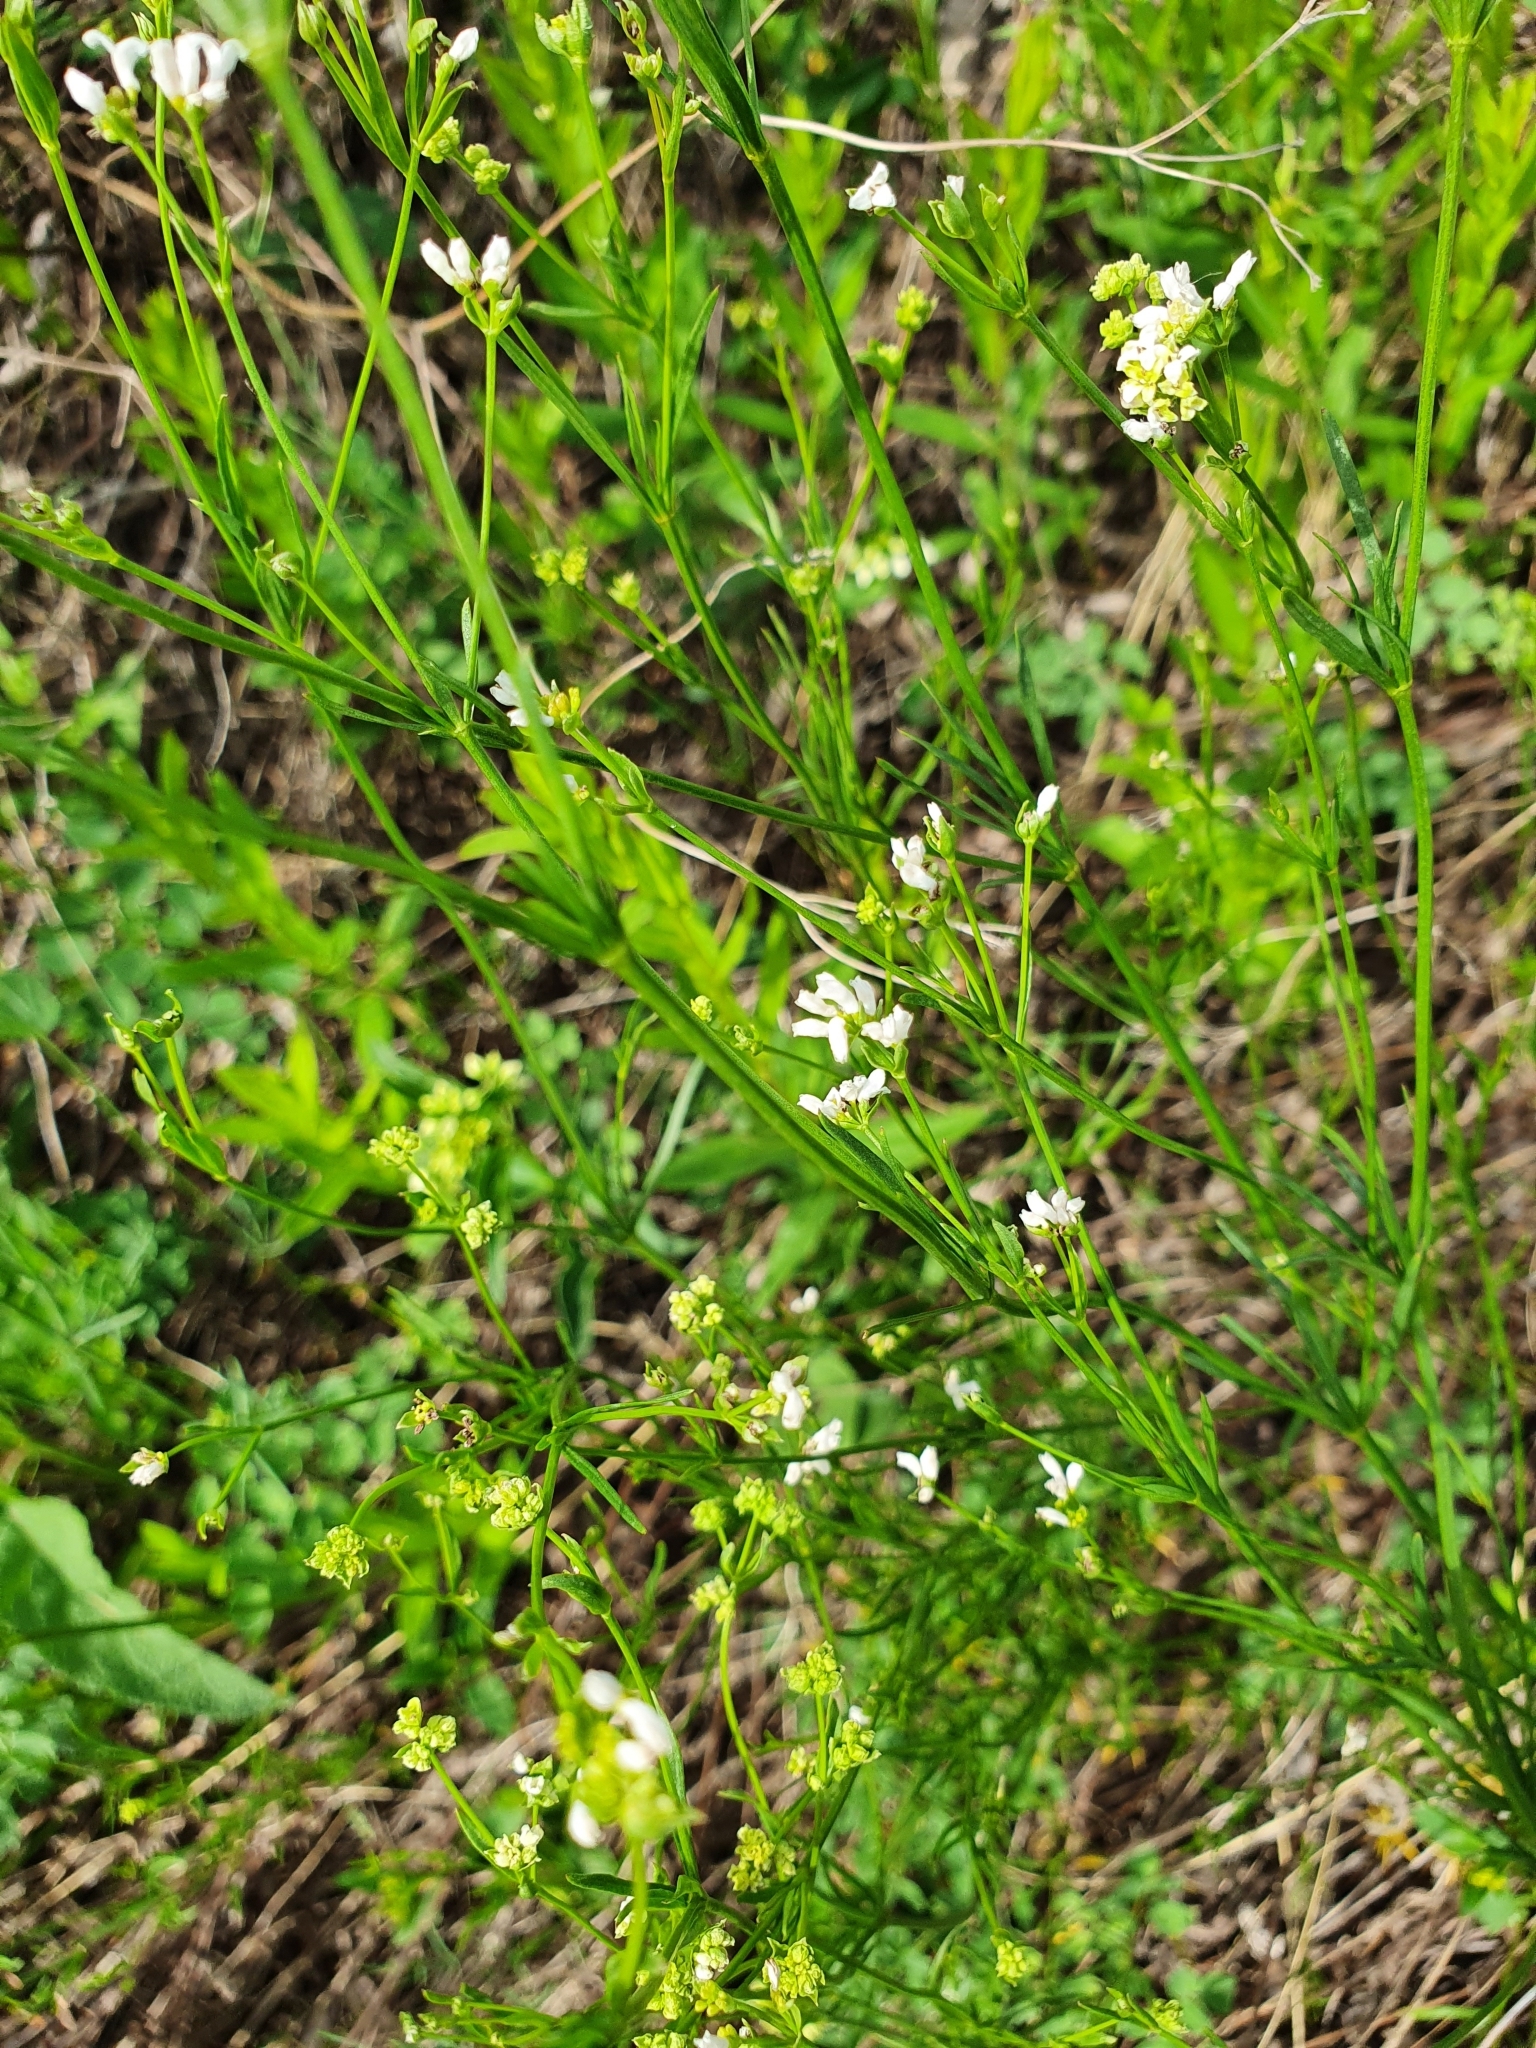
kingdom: Plantae
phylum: Tracheophyta
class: Magnoliopsida
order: Gentianales
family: Rubiaceae
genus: Asperula
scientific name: Asperula tinctoria
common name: Dyer's woodruff
